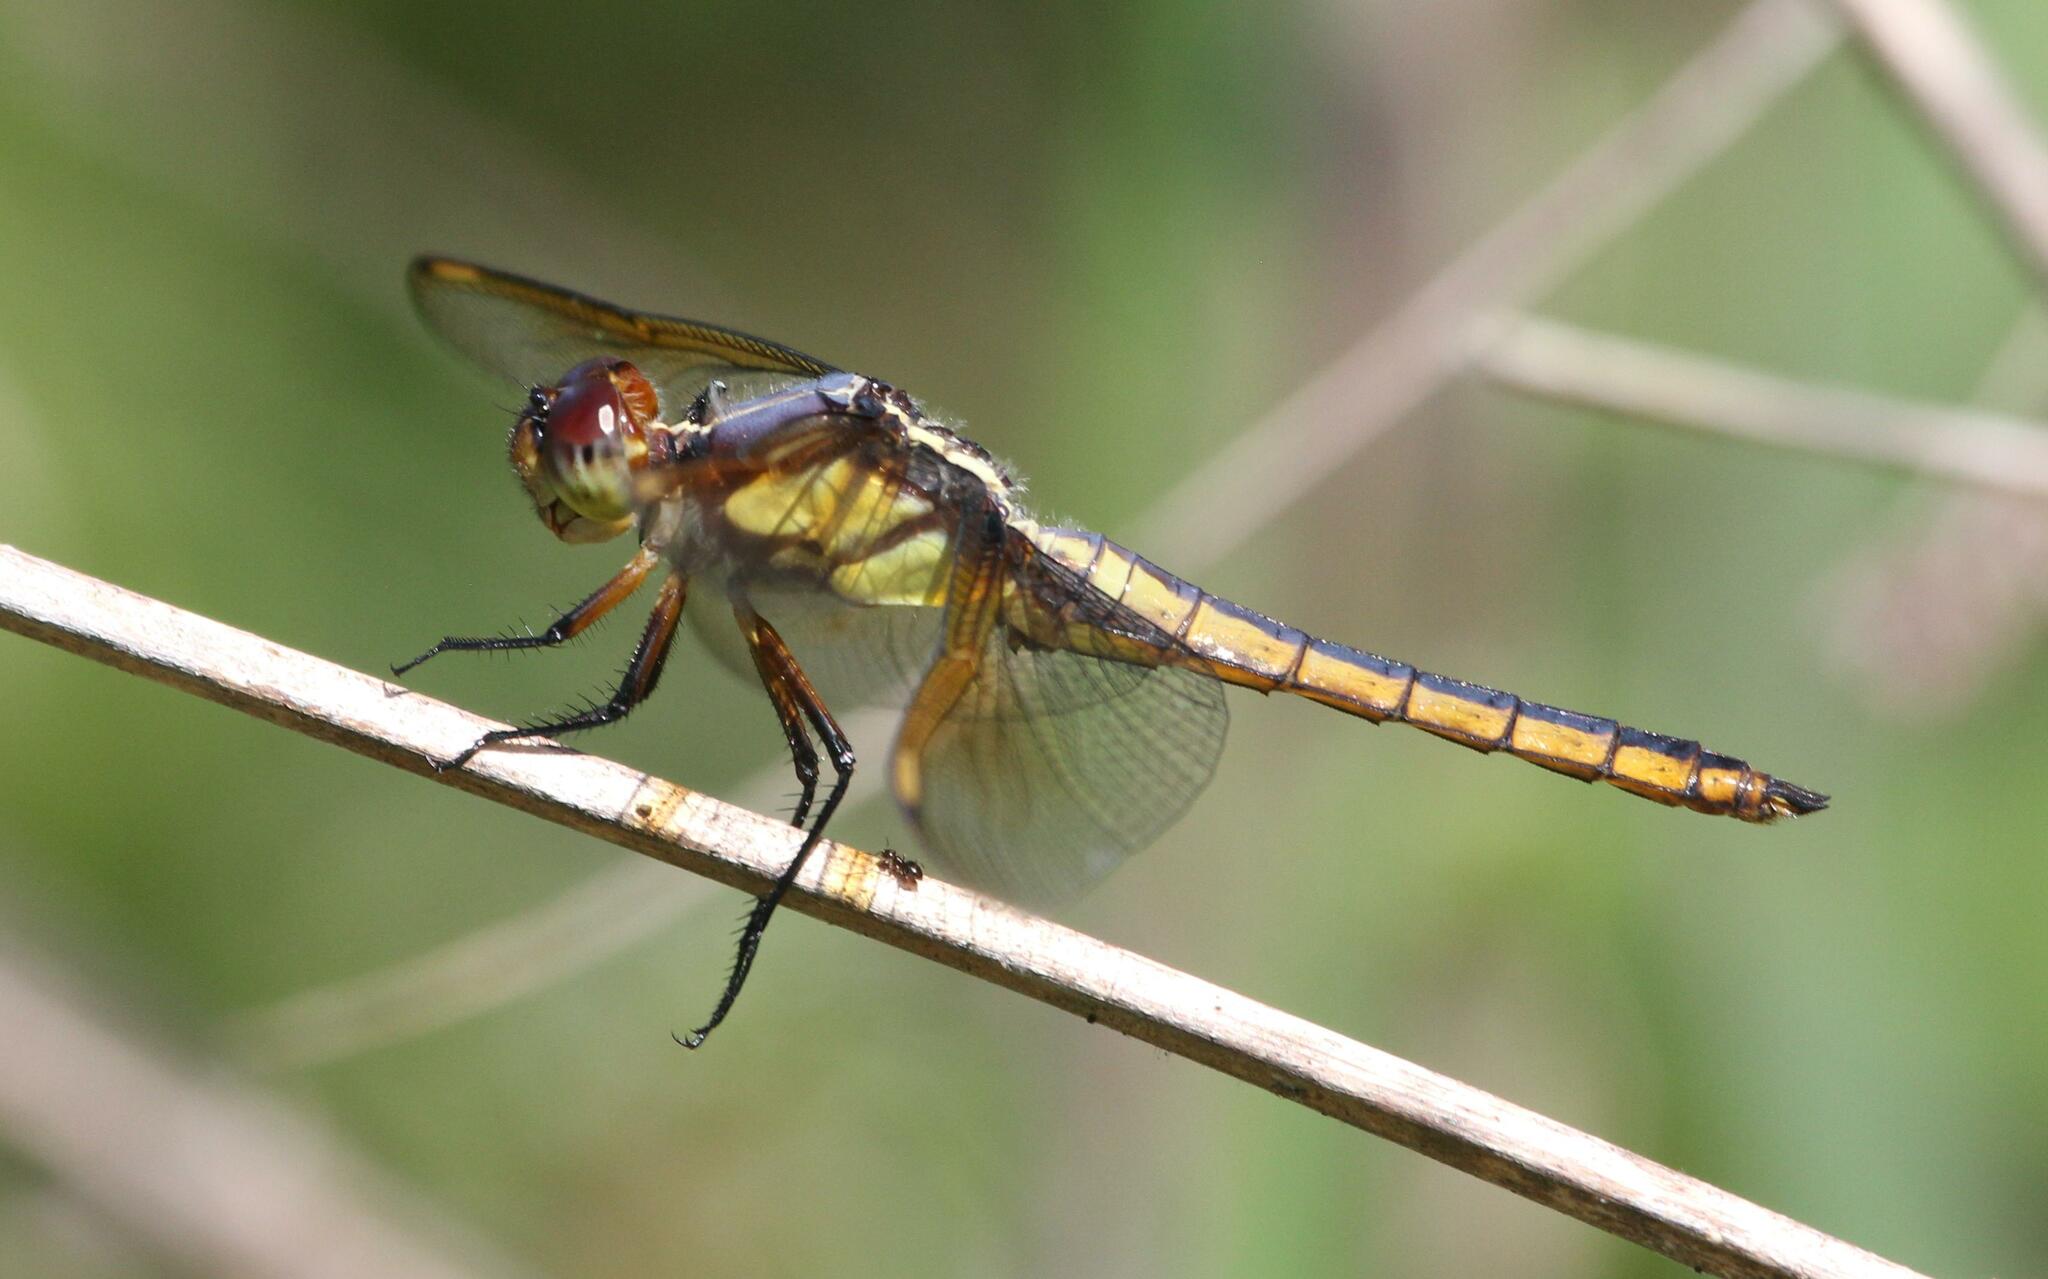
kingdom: Animalia
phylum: Arthropoda
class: Insecta
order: Odonata
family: Libellulidae
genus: Libellula
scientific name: Libellula flavida
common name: Yellow-sided skimmer
